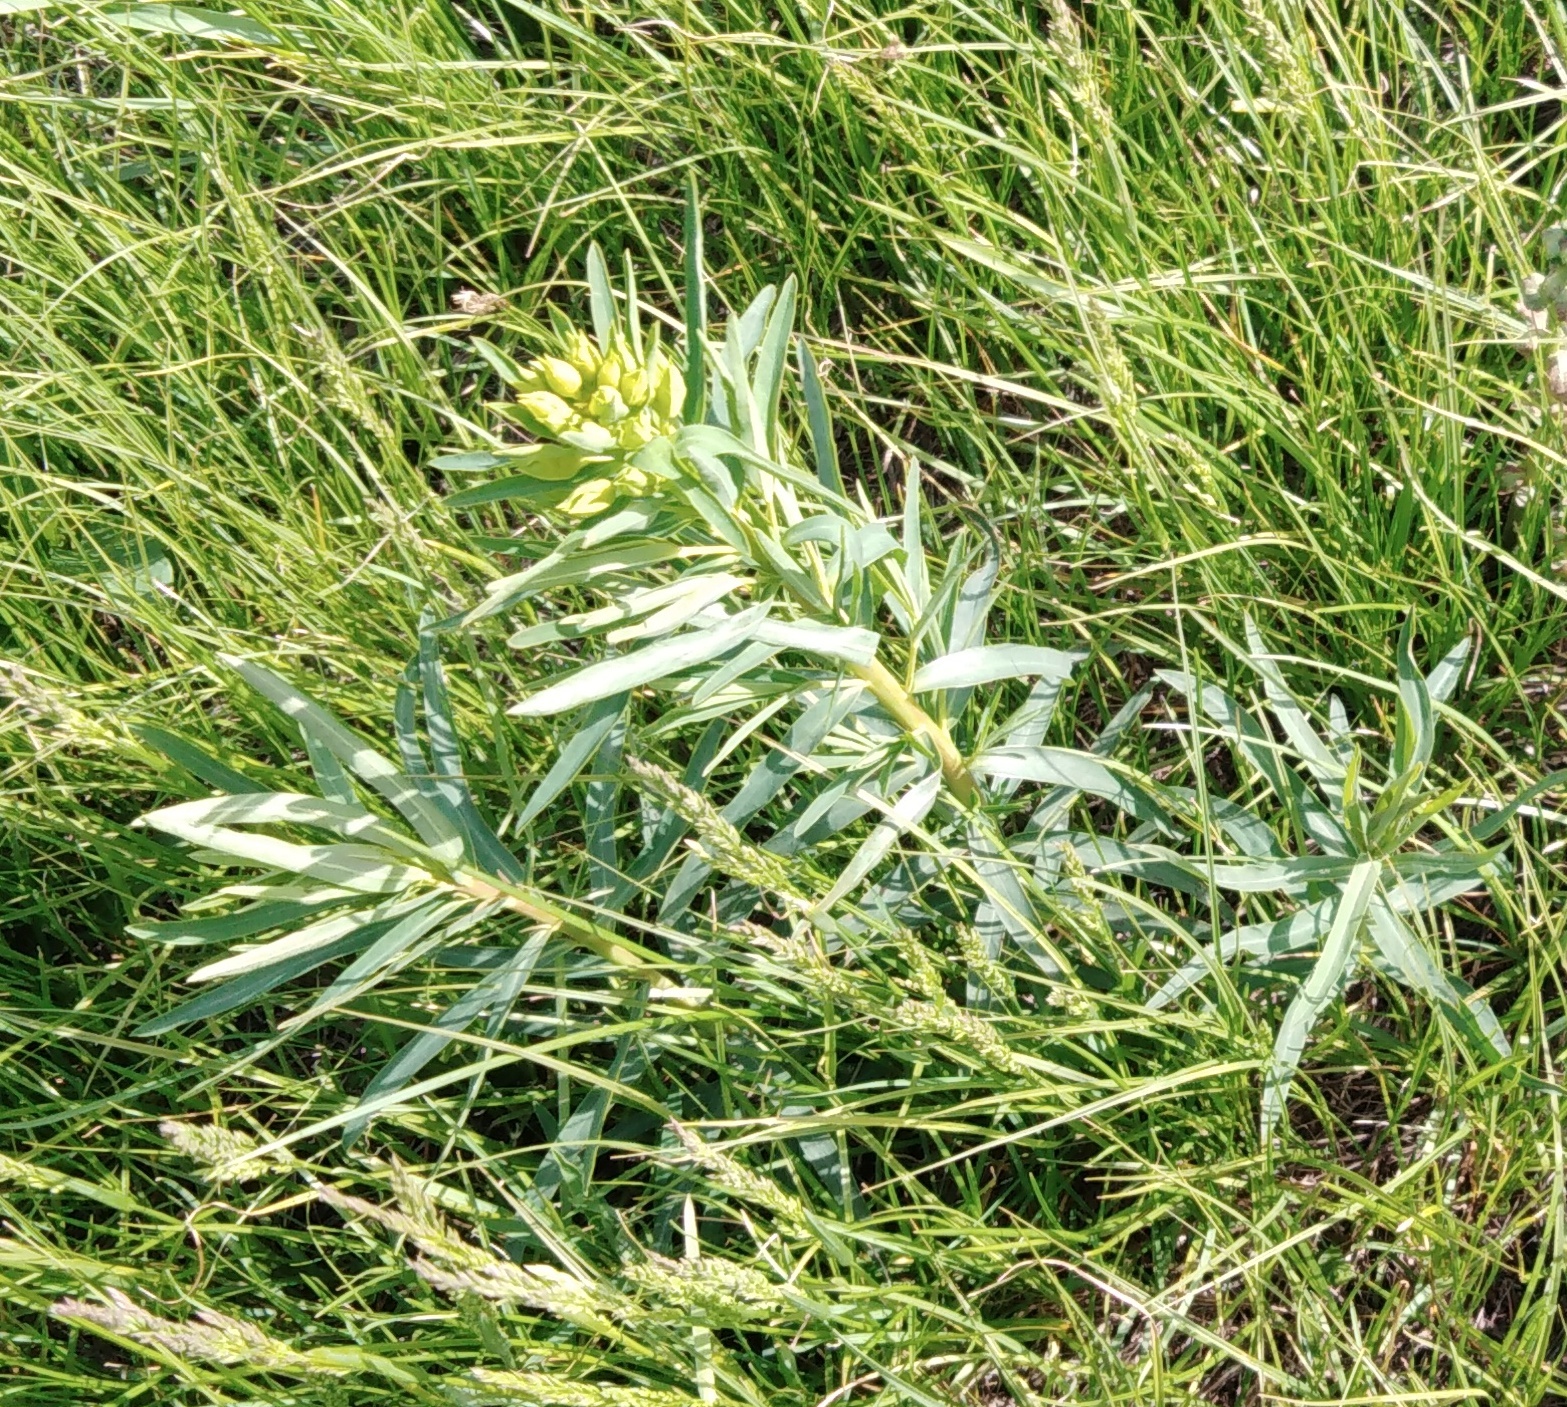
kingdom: Plantae
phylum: Tracheophyta
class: Magnoliopsida
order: Malpighiales
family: Euphorbiaceae
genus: Euphorbia
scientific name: Euphorbia virgata
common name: Leafy spurge
